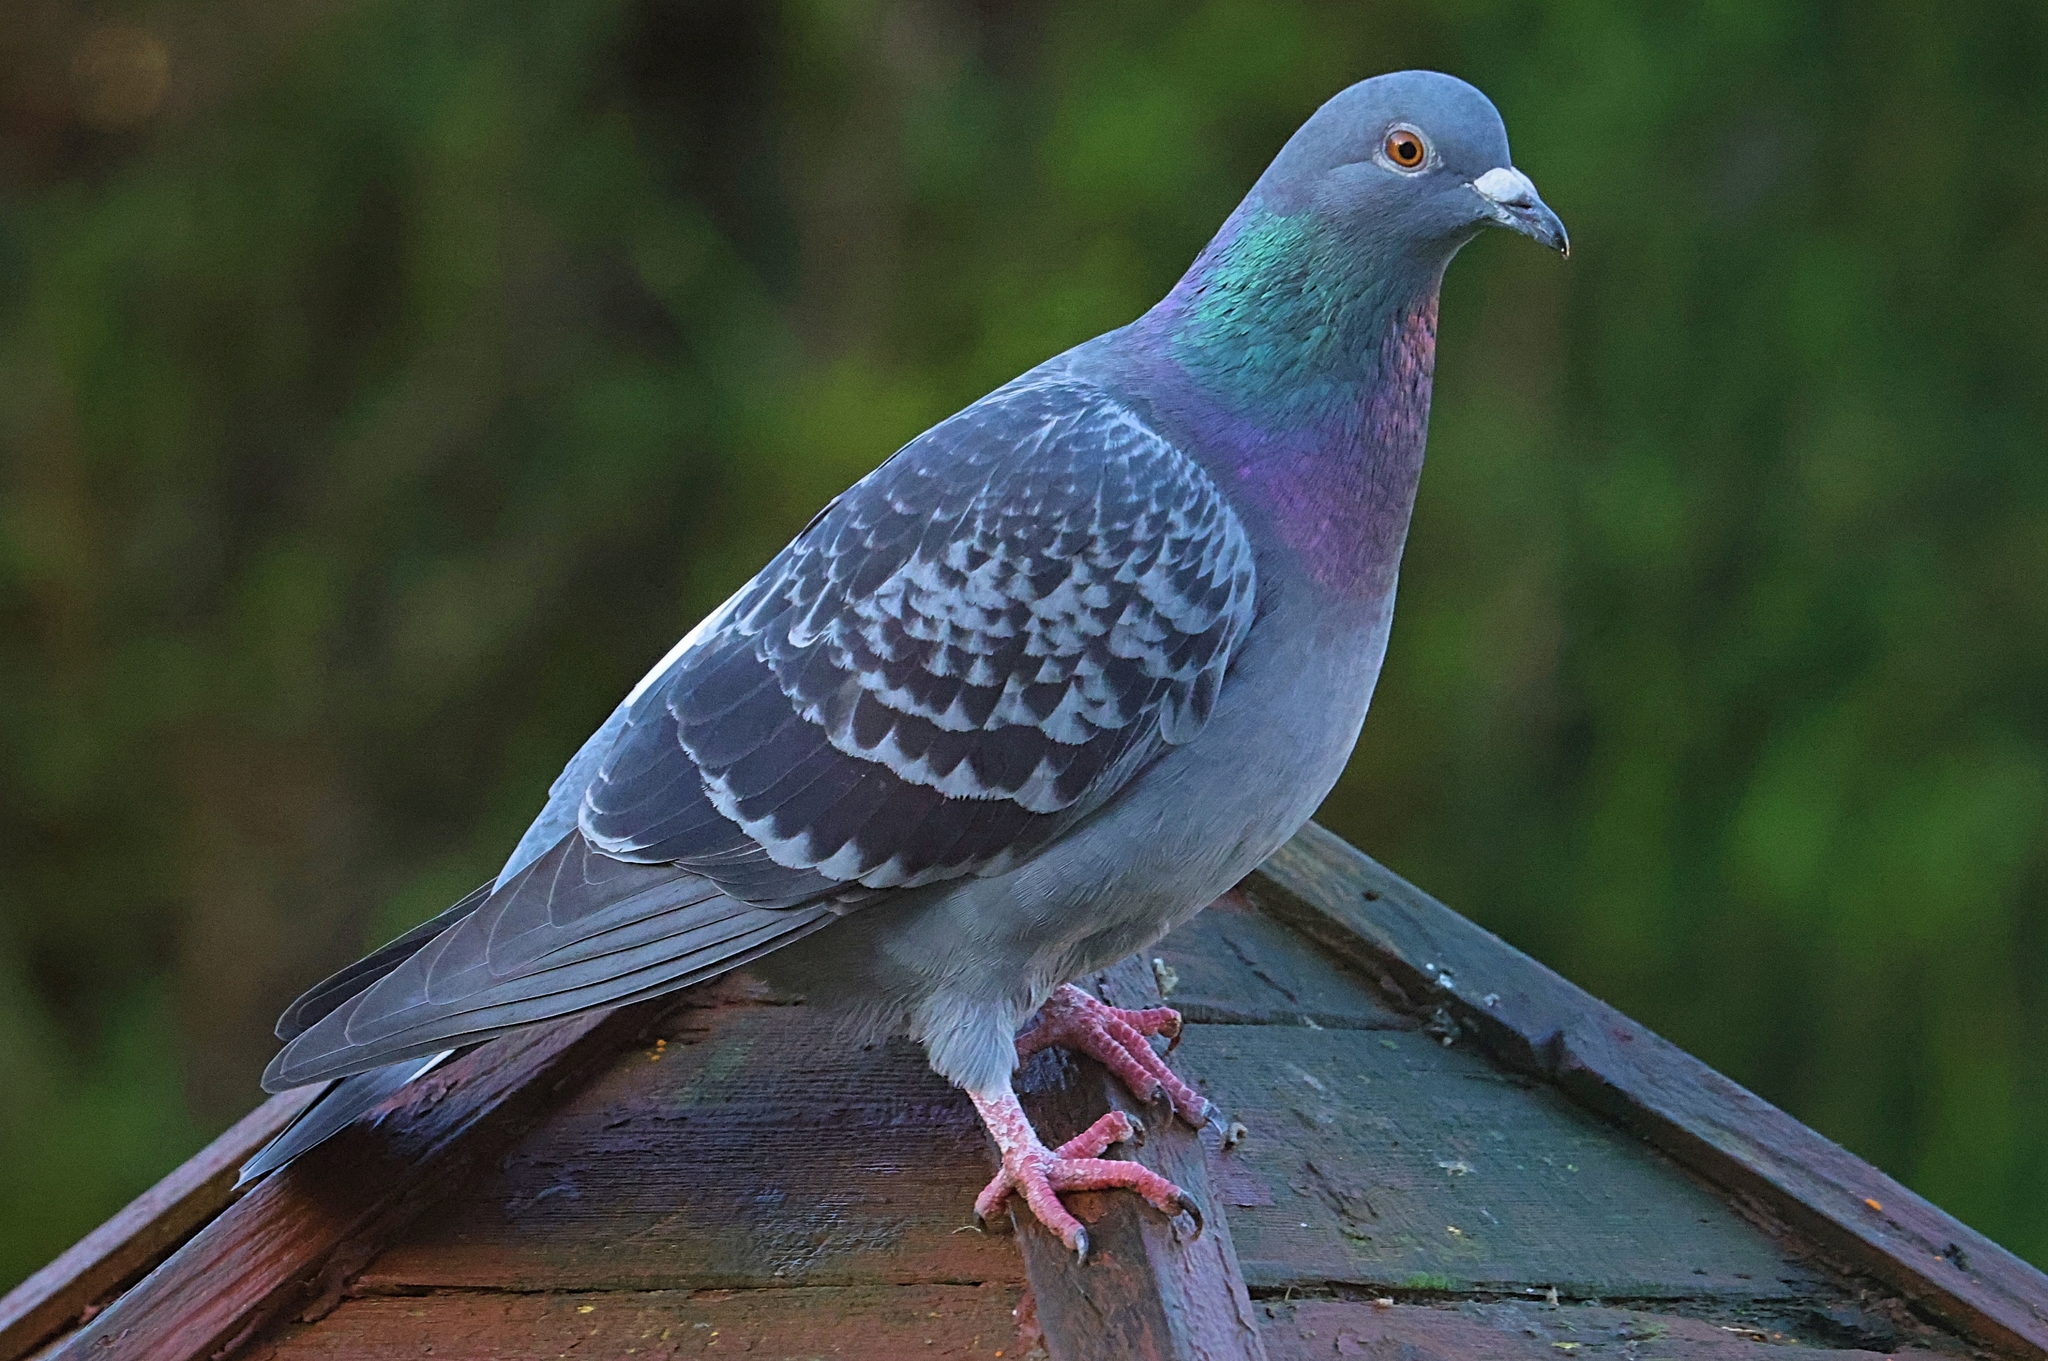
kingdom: Animalia
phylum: Chordata
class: Aves
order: Columbiformes
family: Columbidae
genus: Columba
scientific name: Columba livia
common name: Rock pigeon
